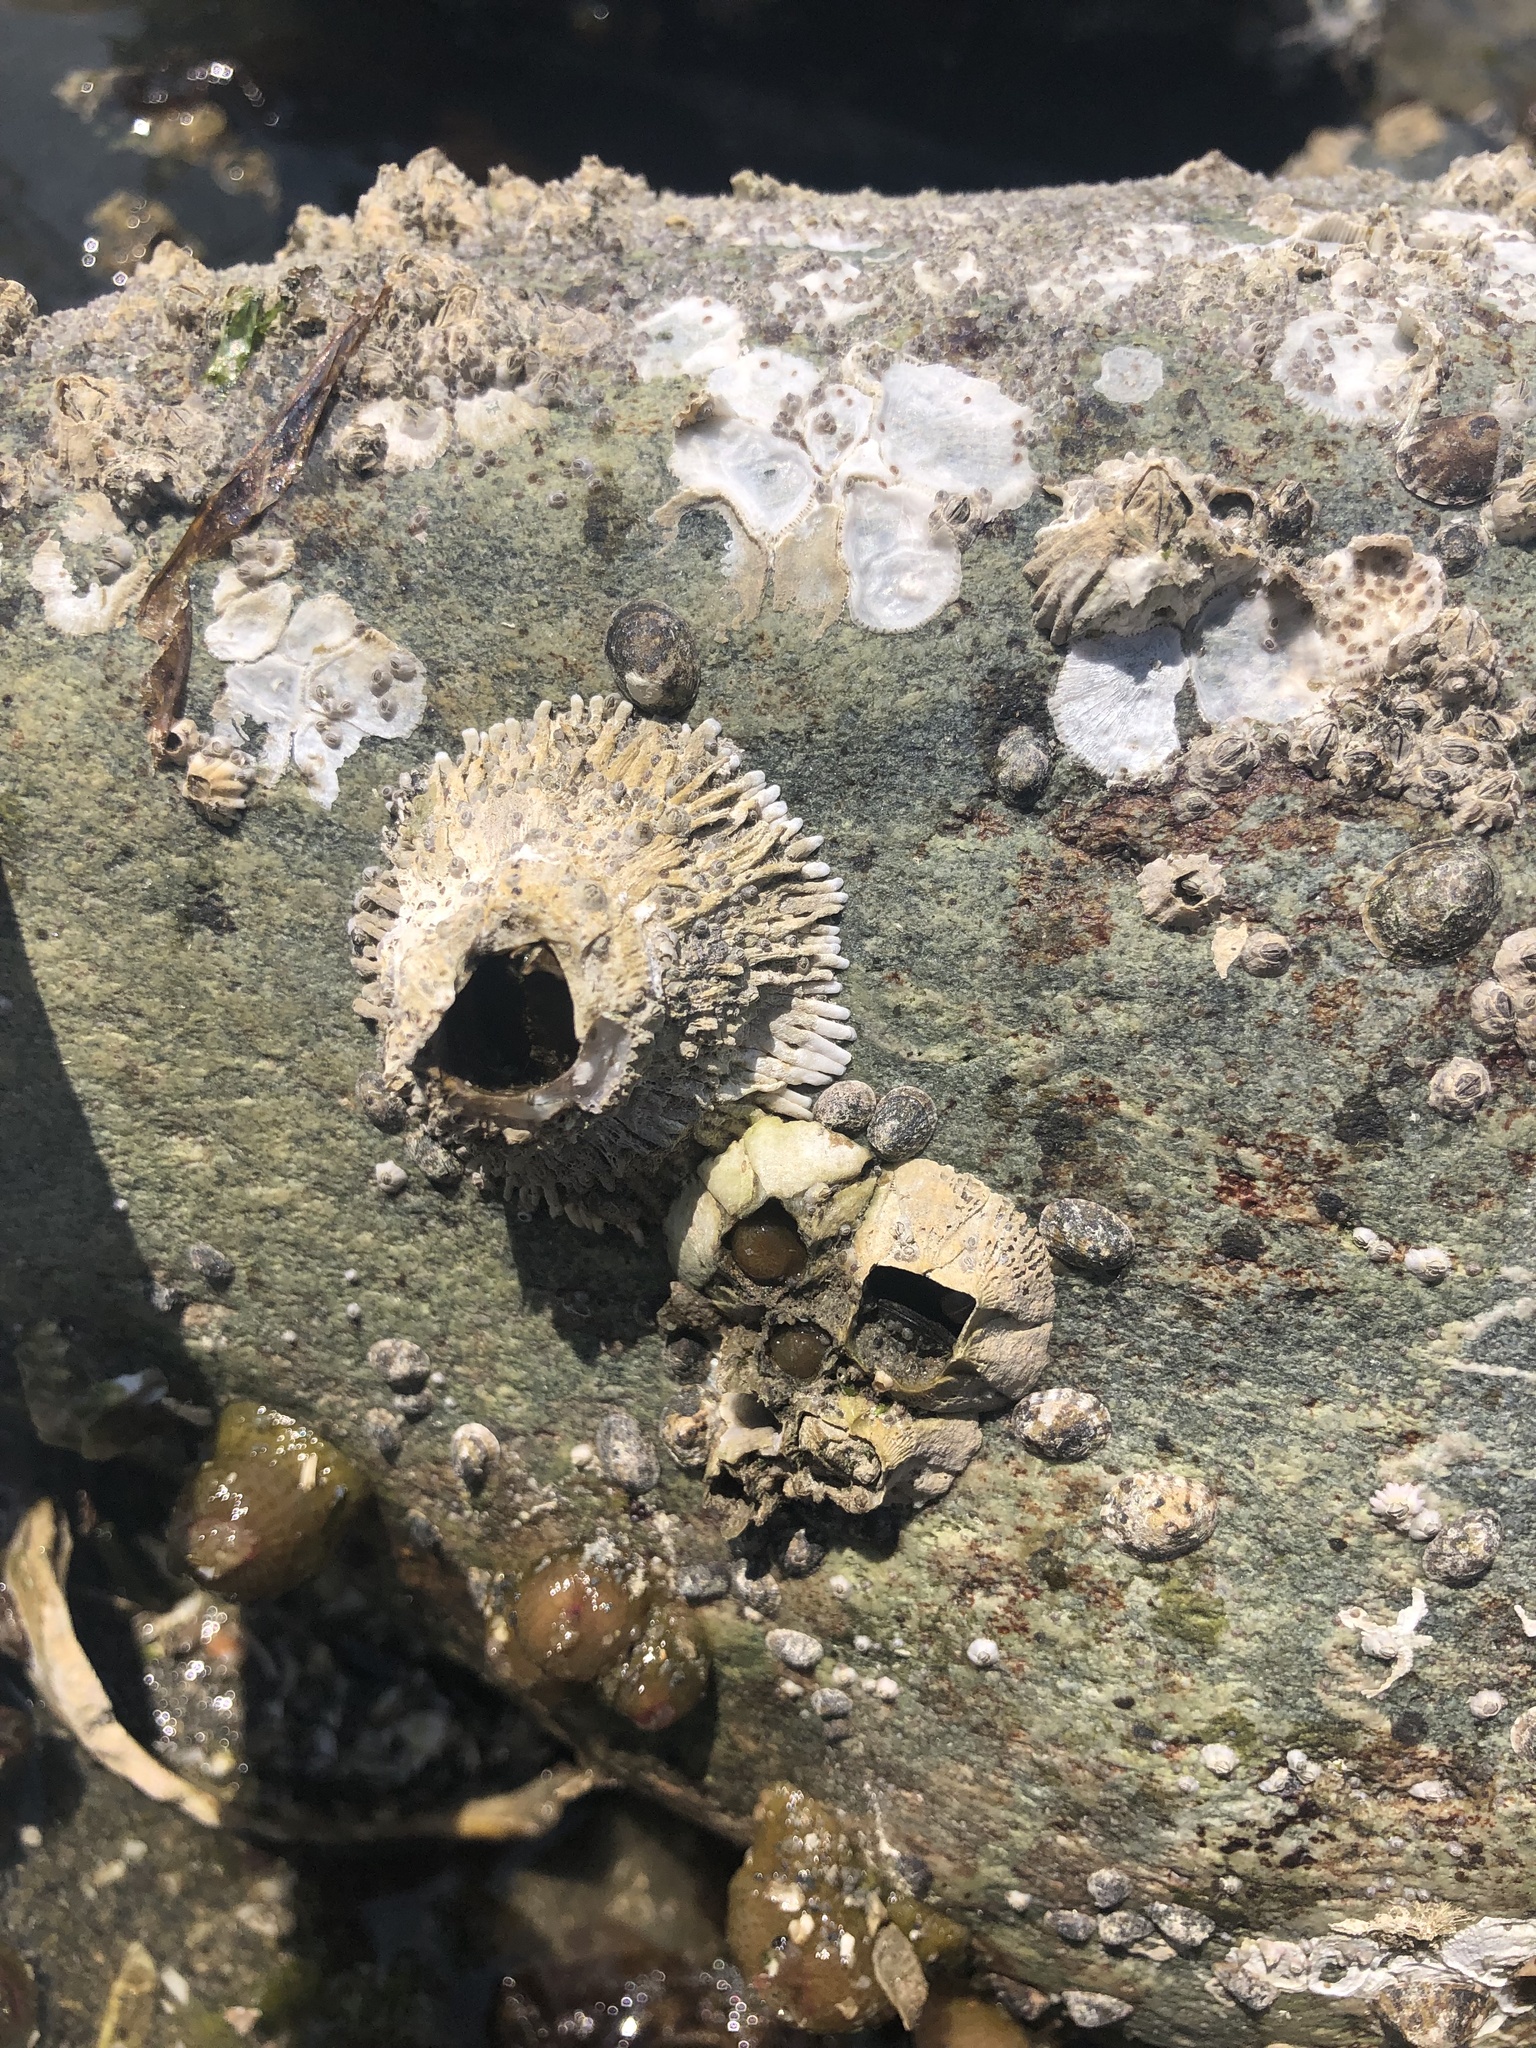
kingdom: Animalia
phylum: Arthropoda
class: Maxillopoda
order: Sessilia
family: Archaeobalanidae
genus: Semibalanus
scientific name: Semibalanus cariosus
